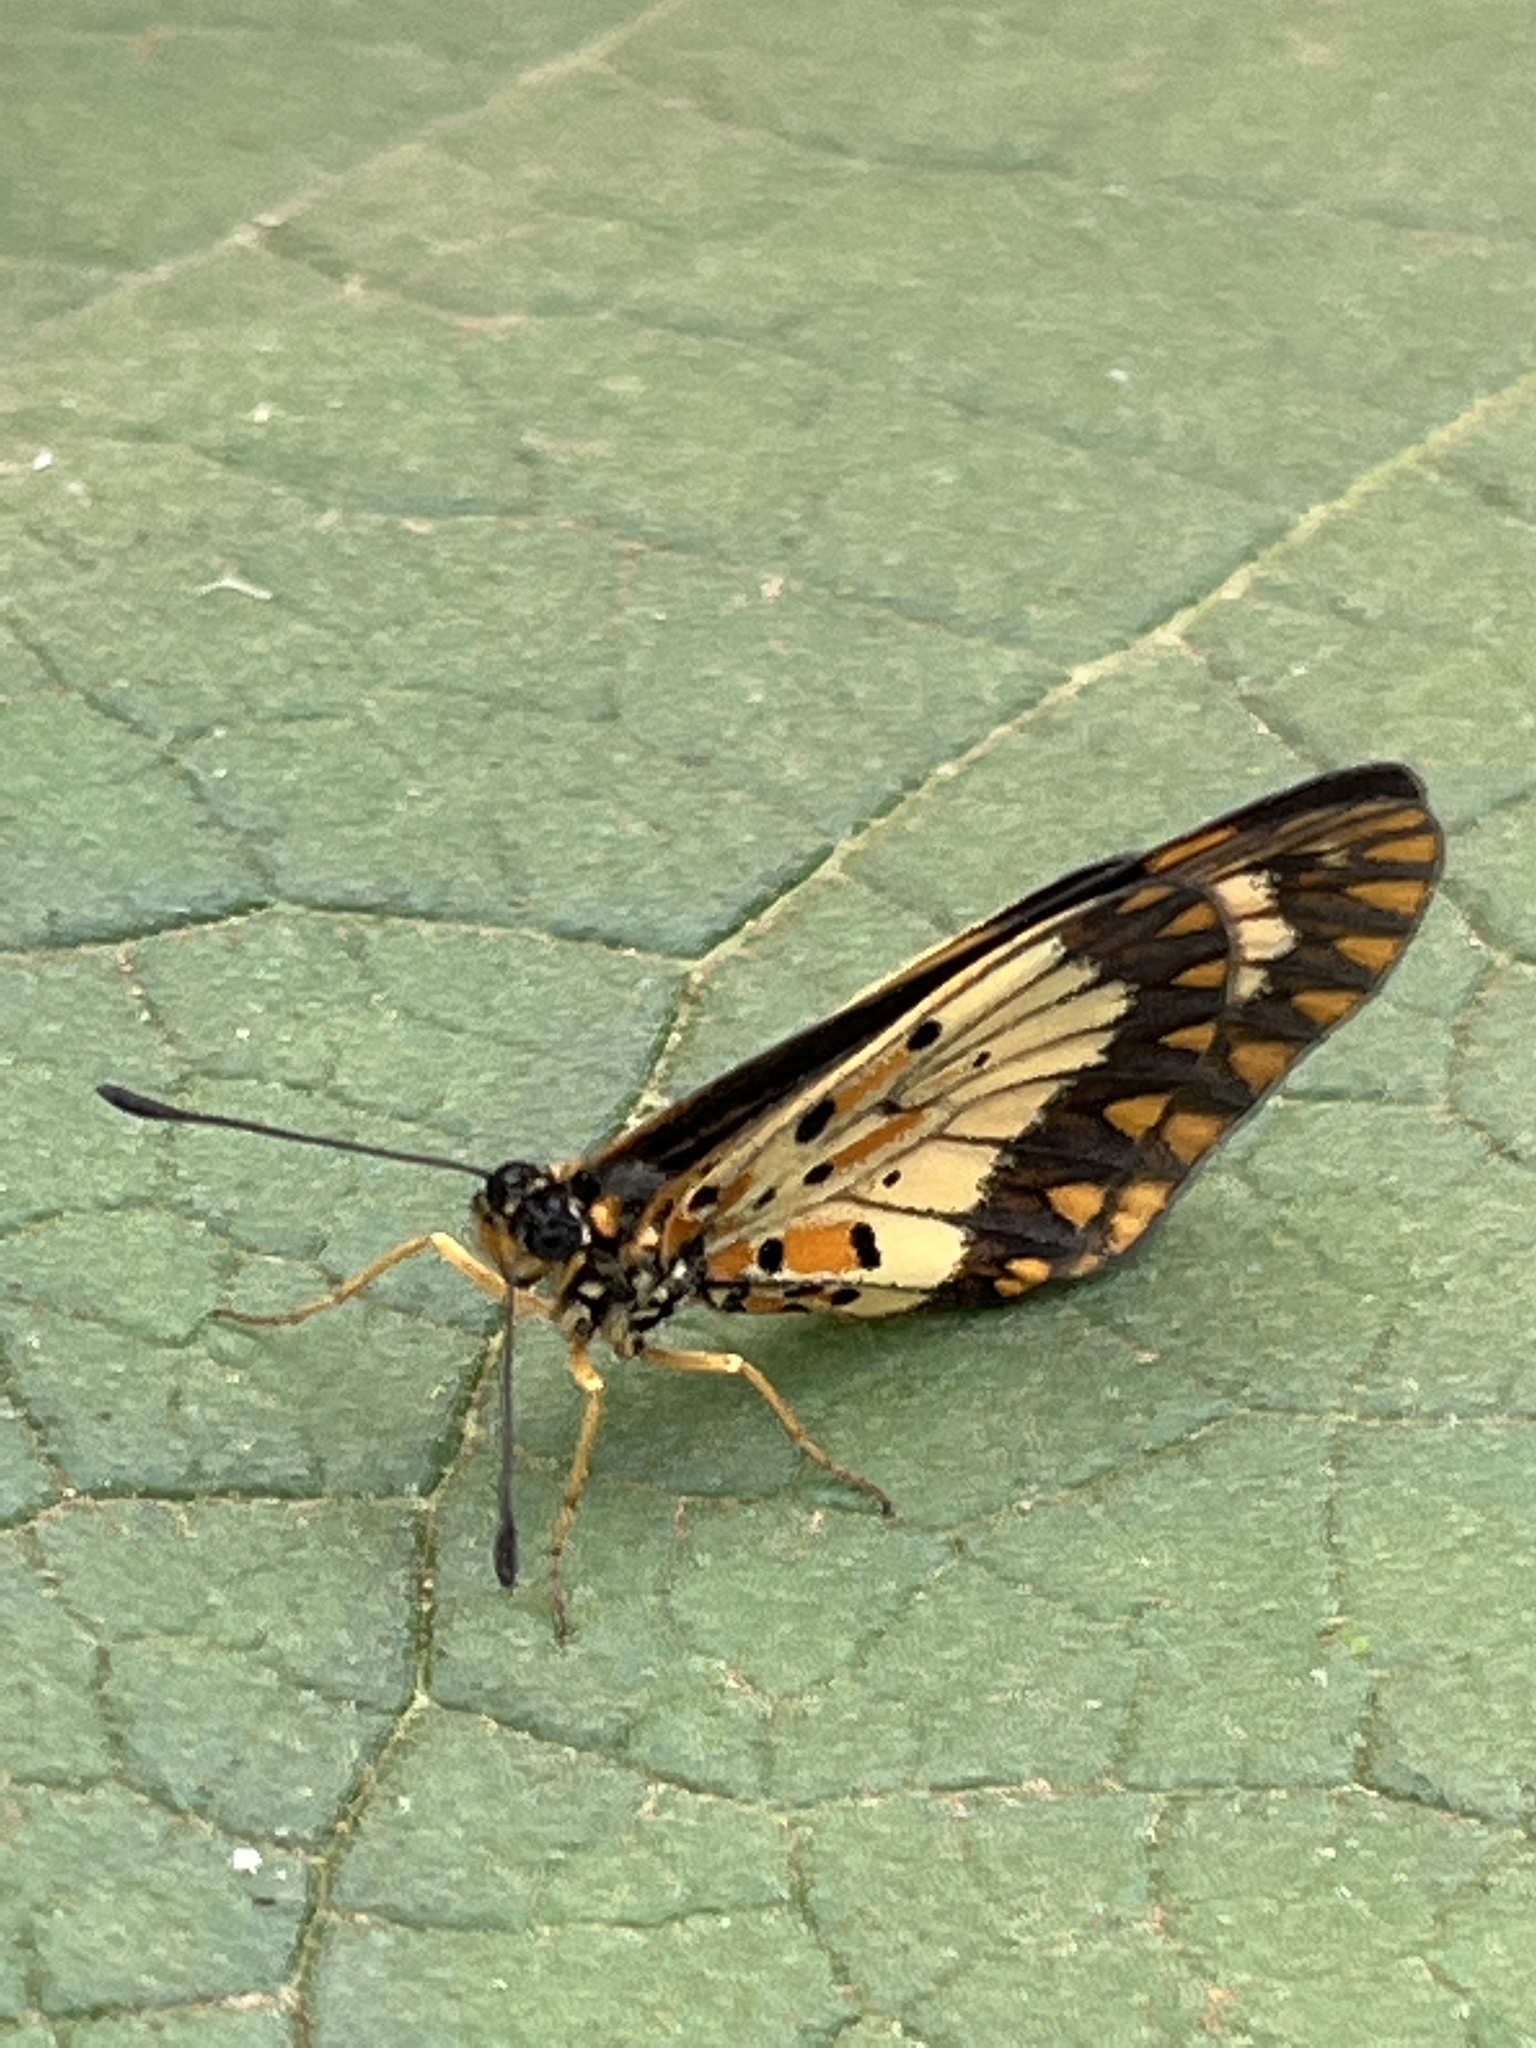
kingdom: Animalia
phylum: Arthropoda
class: Insecta
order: Lepidoptera
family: Nymphalidae
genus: Acraea
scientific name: Acraea Telchinia acerata
